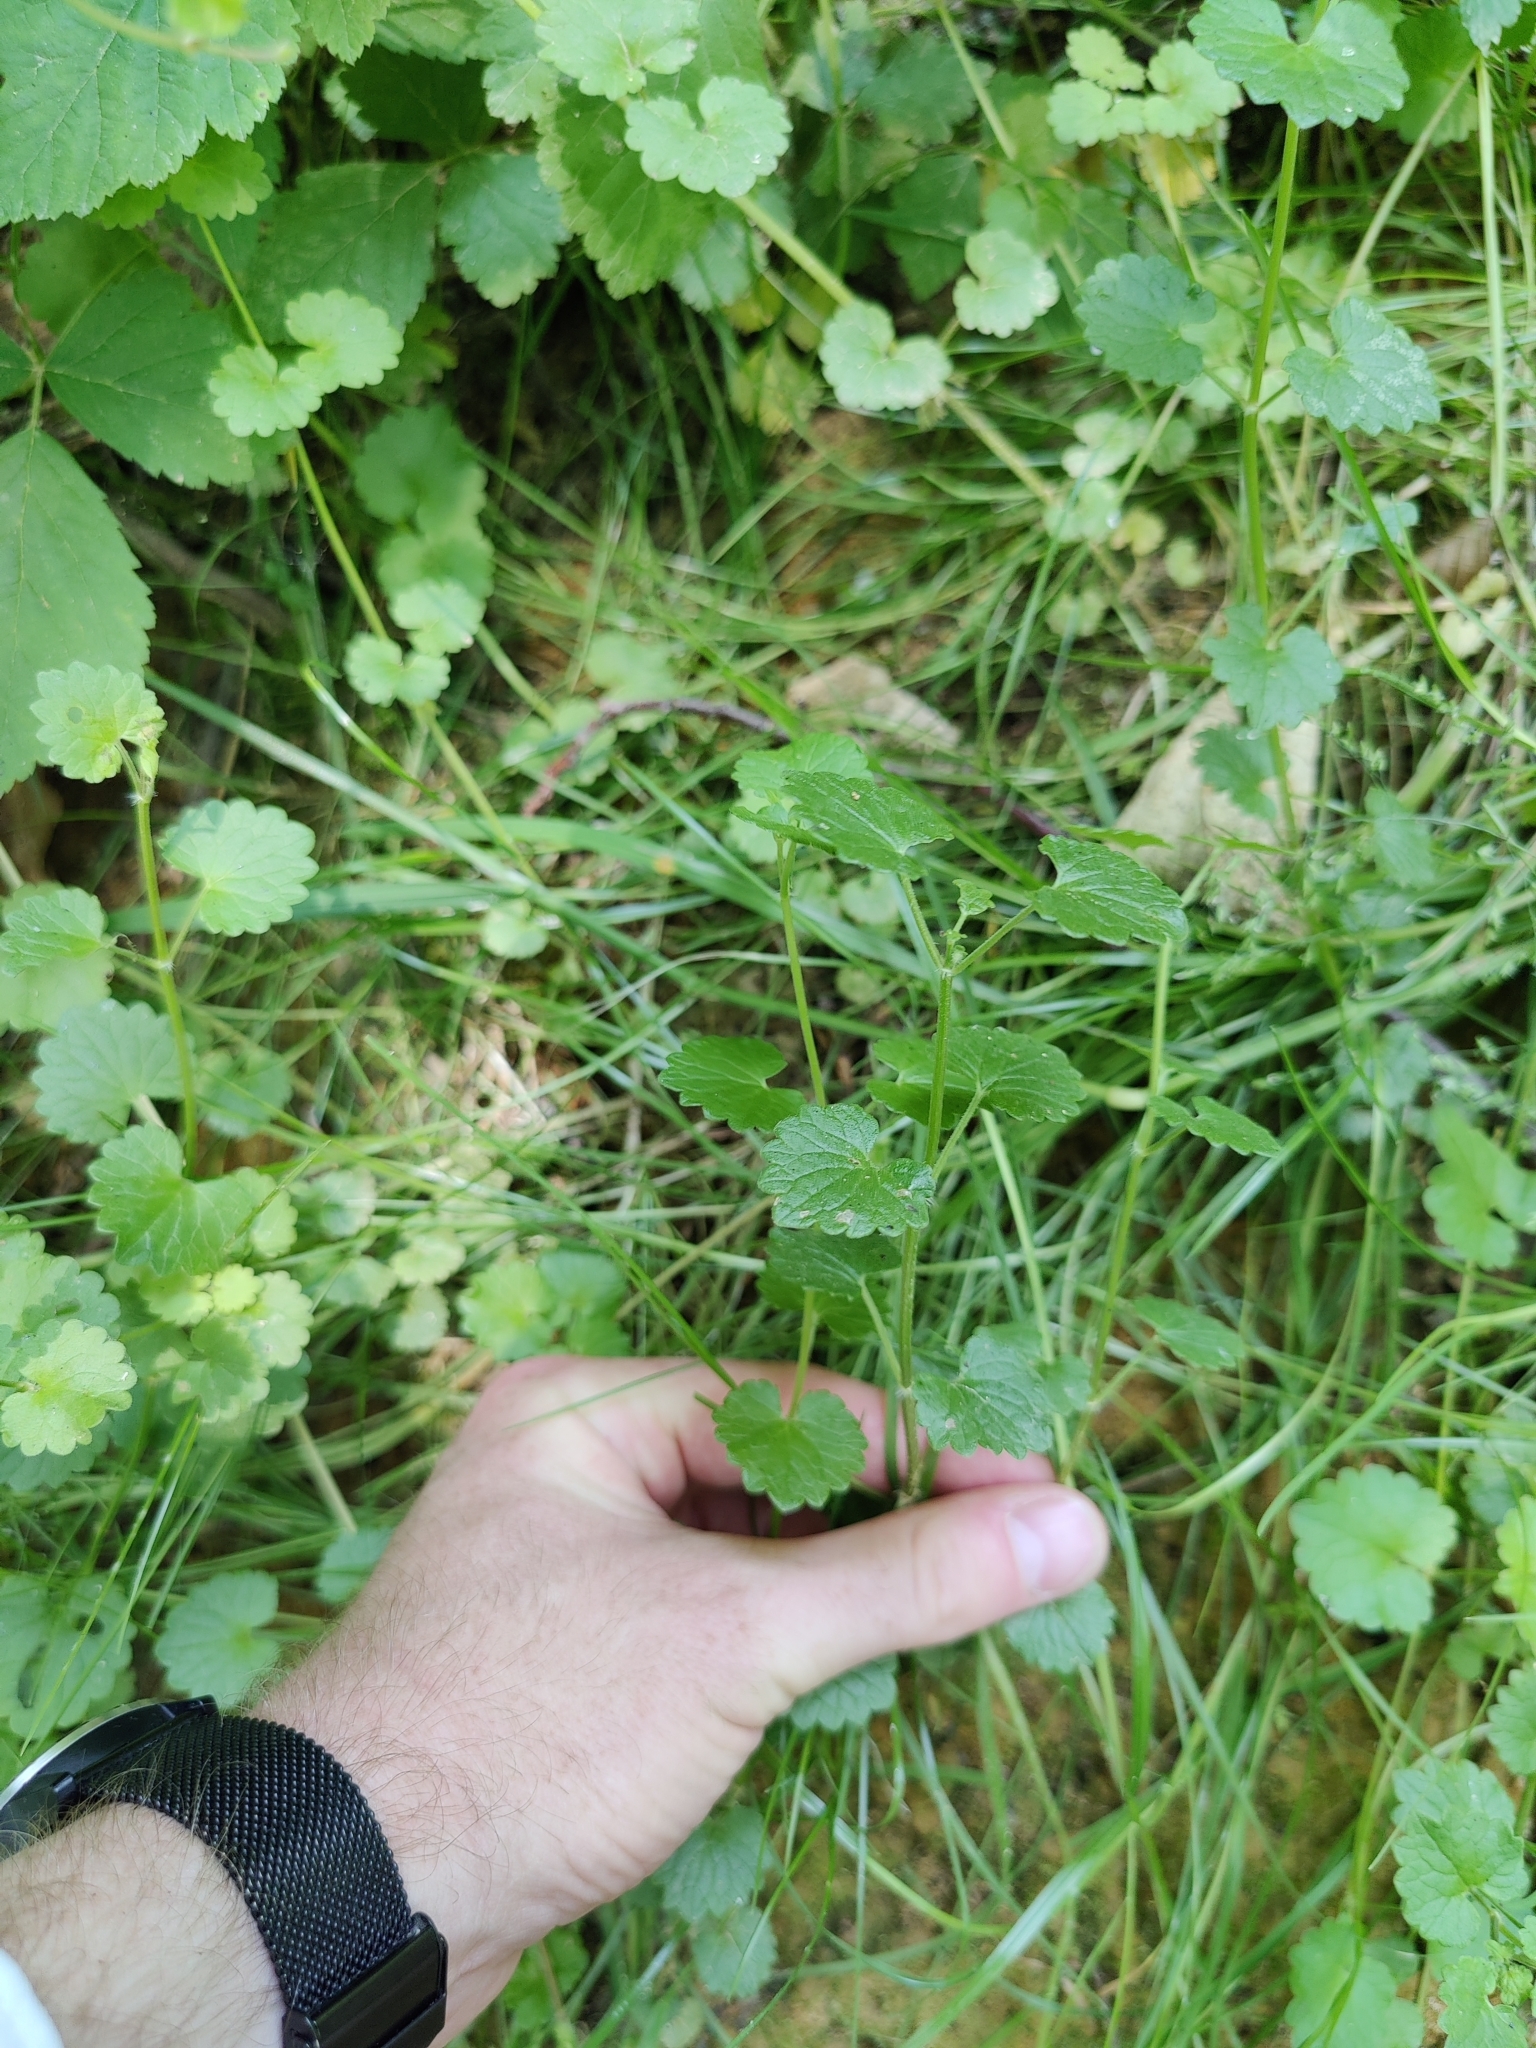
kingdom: Plantae
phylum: Tracheophyta
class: Magnoliopsida
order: Lamiales
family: Lamiaceae
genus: Glechoma
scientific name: Glechoma hederacea
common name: Ground ivy
